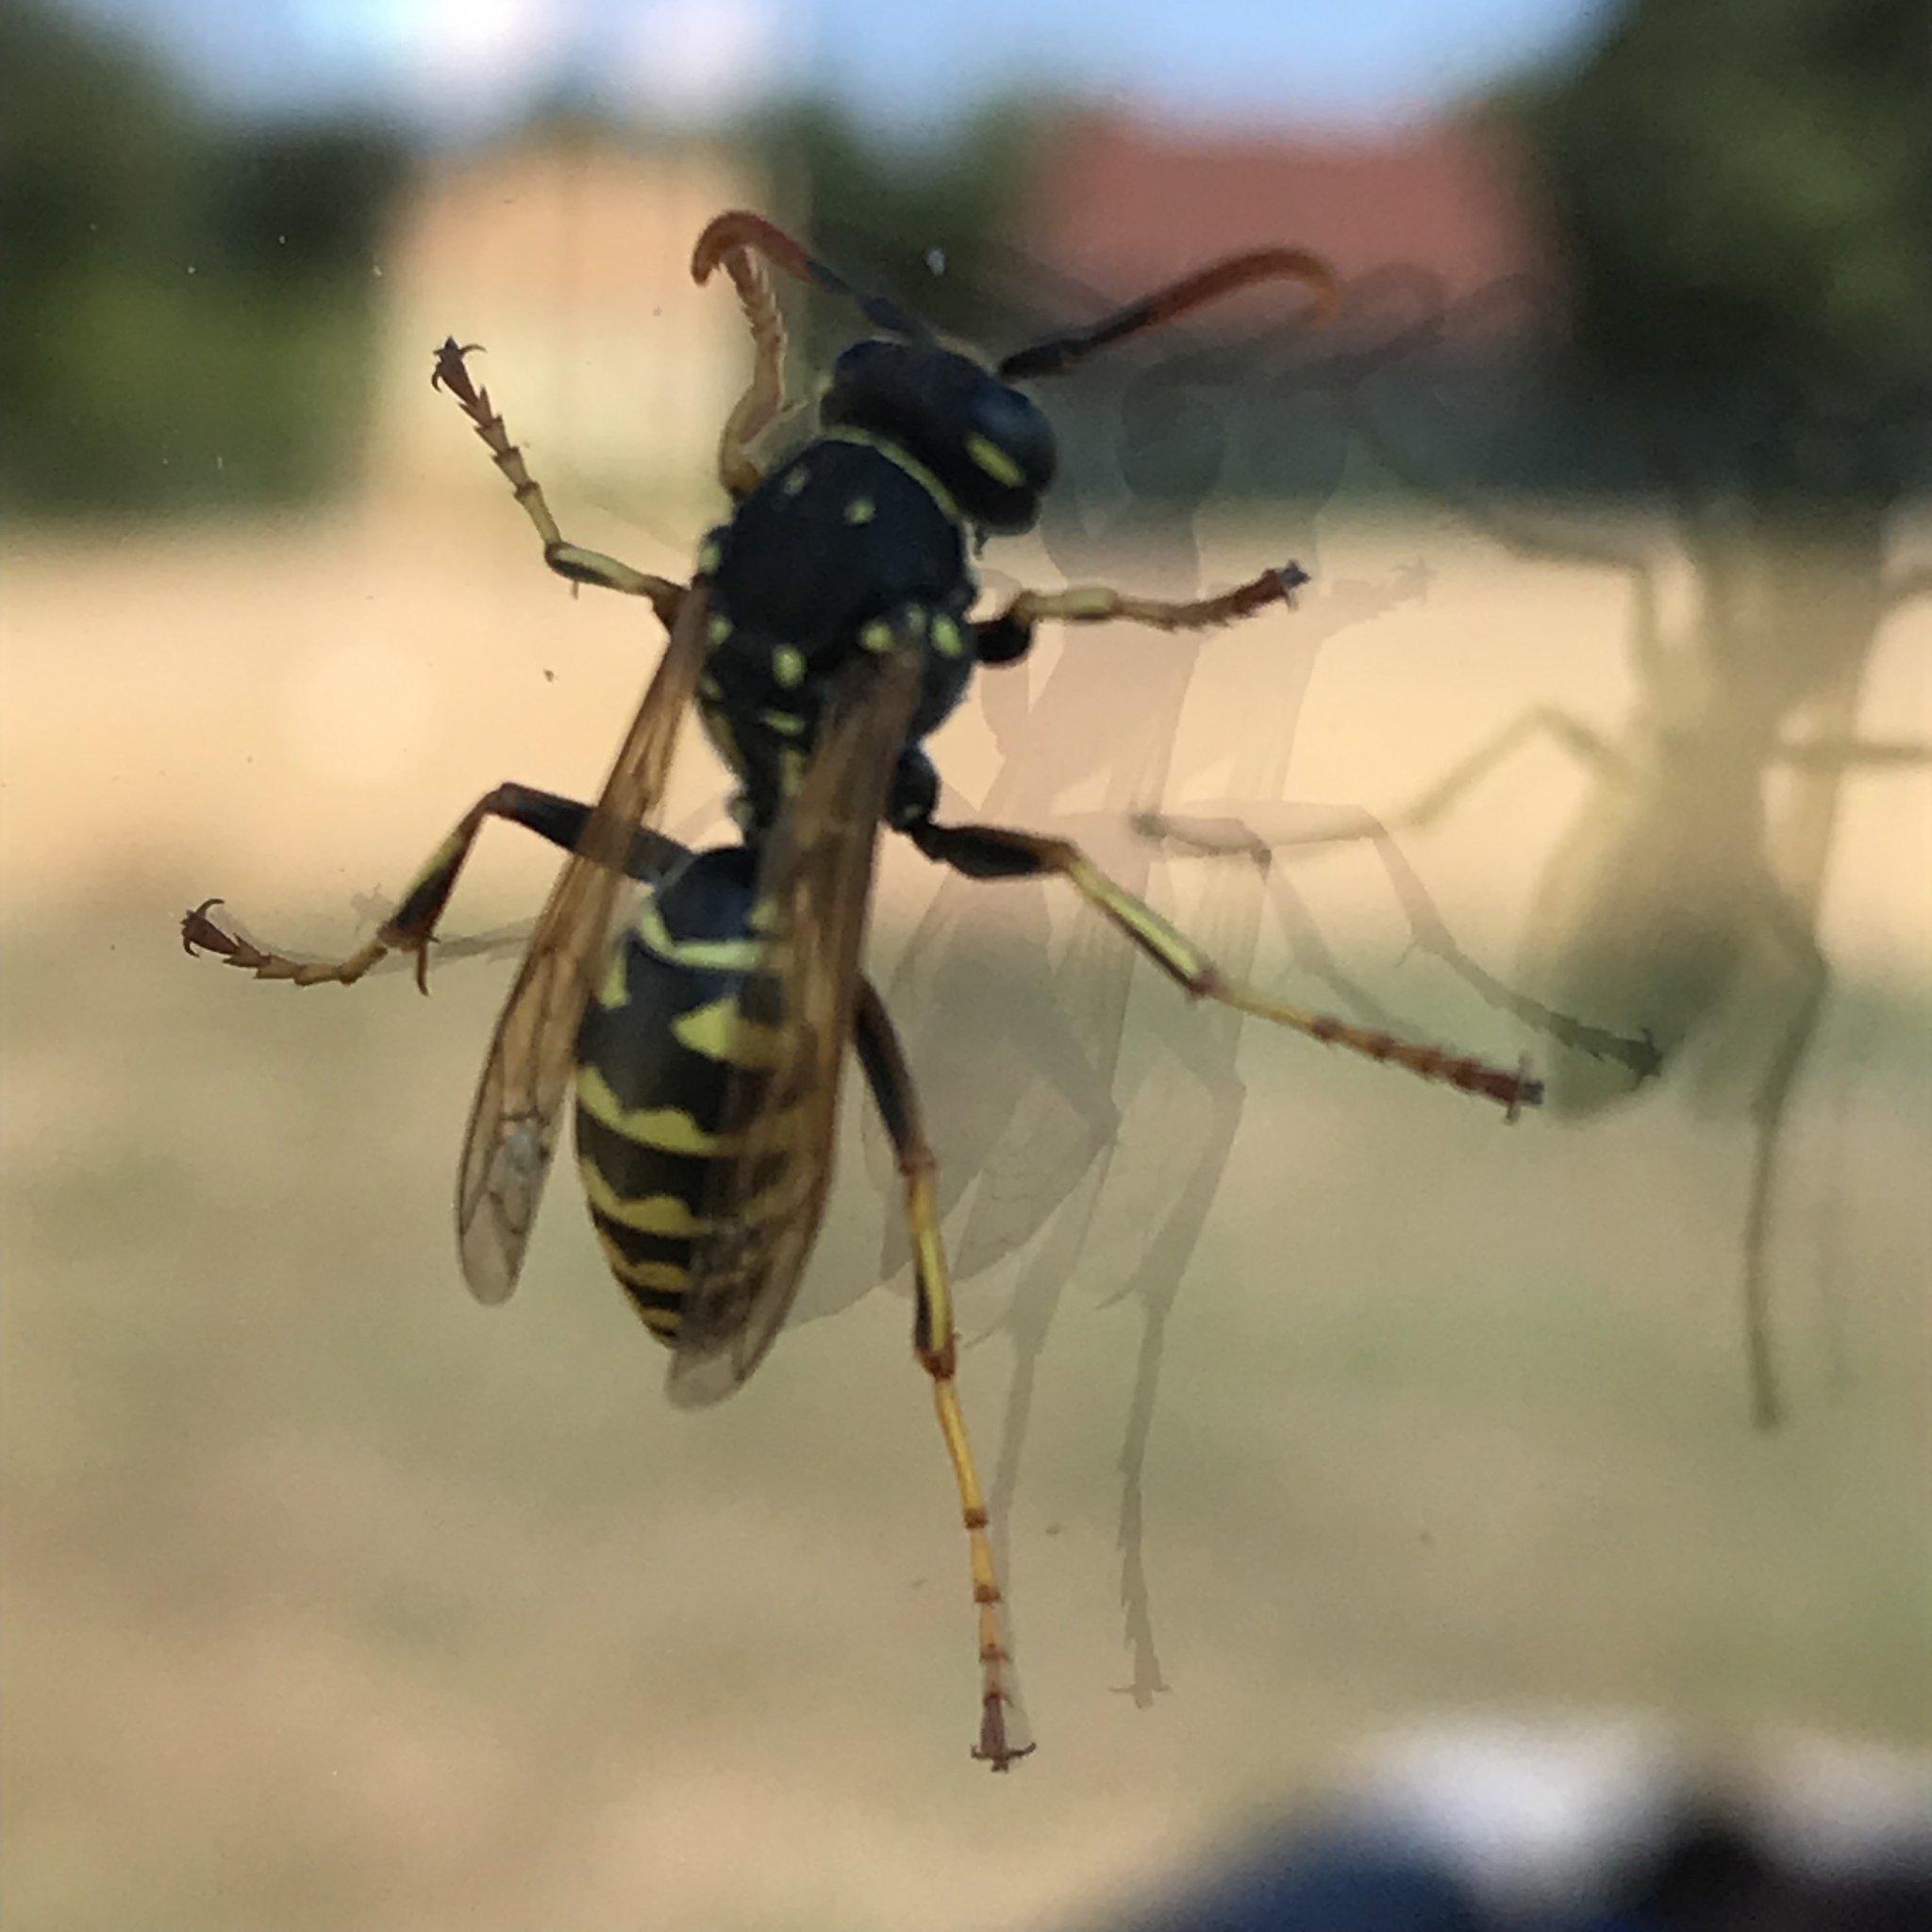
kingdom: Animalia
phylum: Arthropoda
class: Insecta
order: Hymenoptera
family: Eumenidae
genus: Polistes
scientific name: Polistes dominula
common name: Paper wasp
